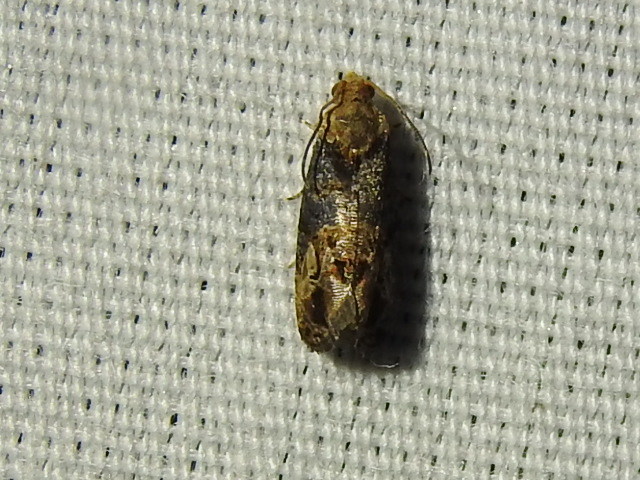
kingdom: Animalia
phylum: Arthropoda
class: Insecta
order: Lepidoptera
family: Tortricidae
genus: Paralobesia
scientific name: Paralobesia viteana
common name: Grape berry moth
